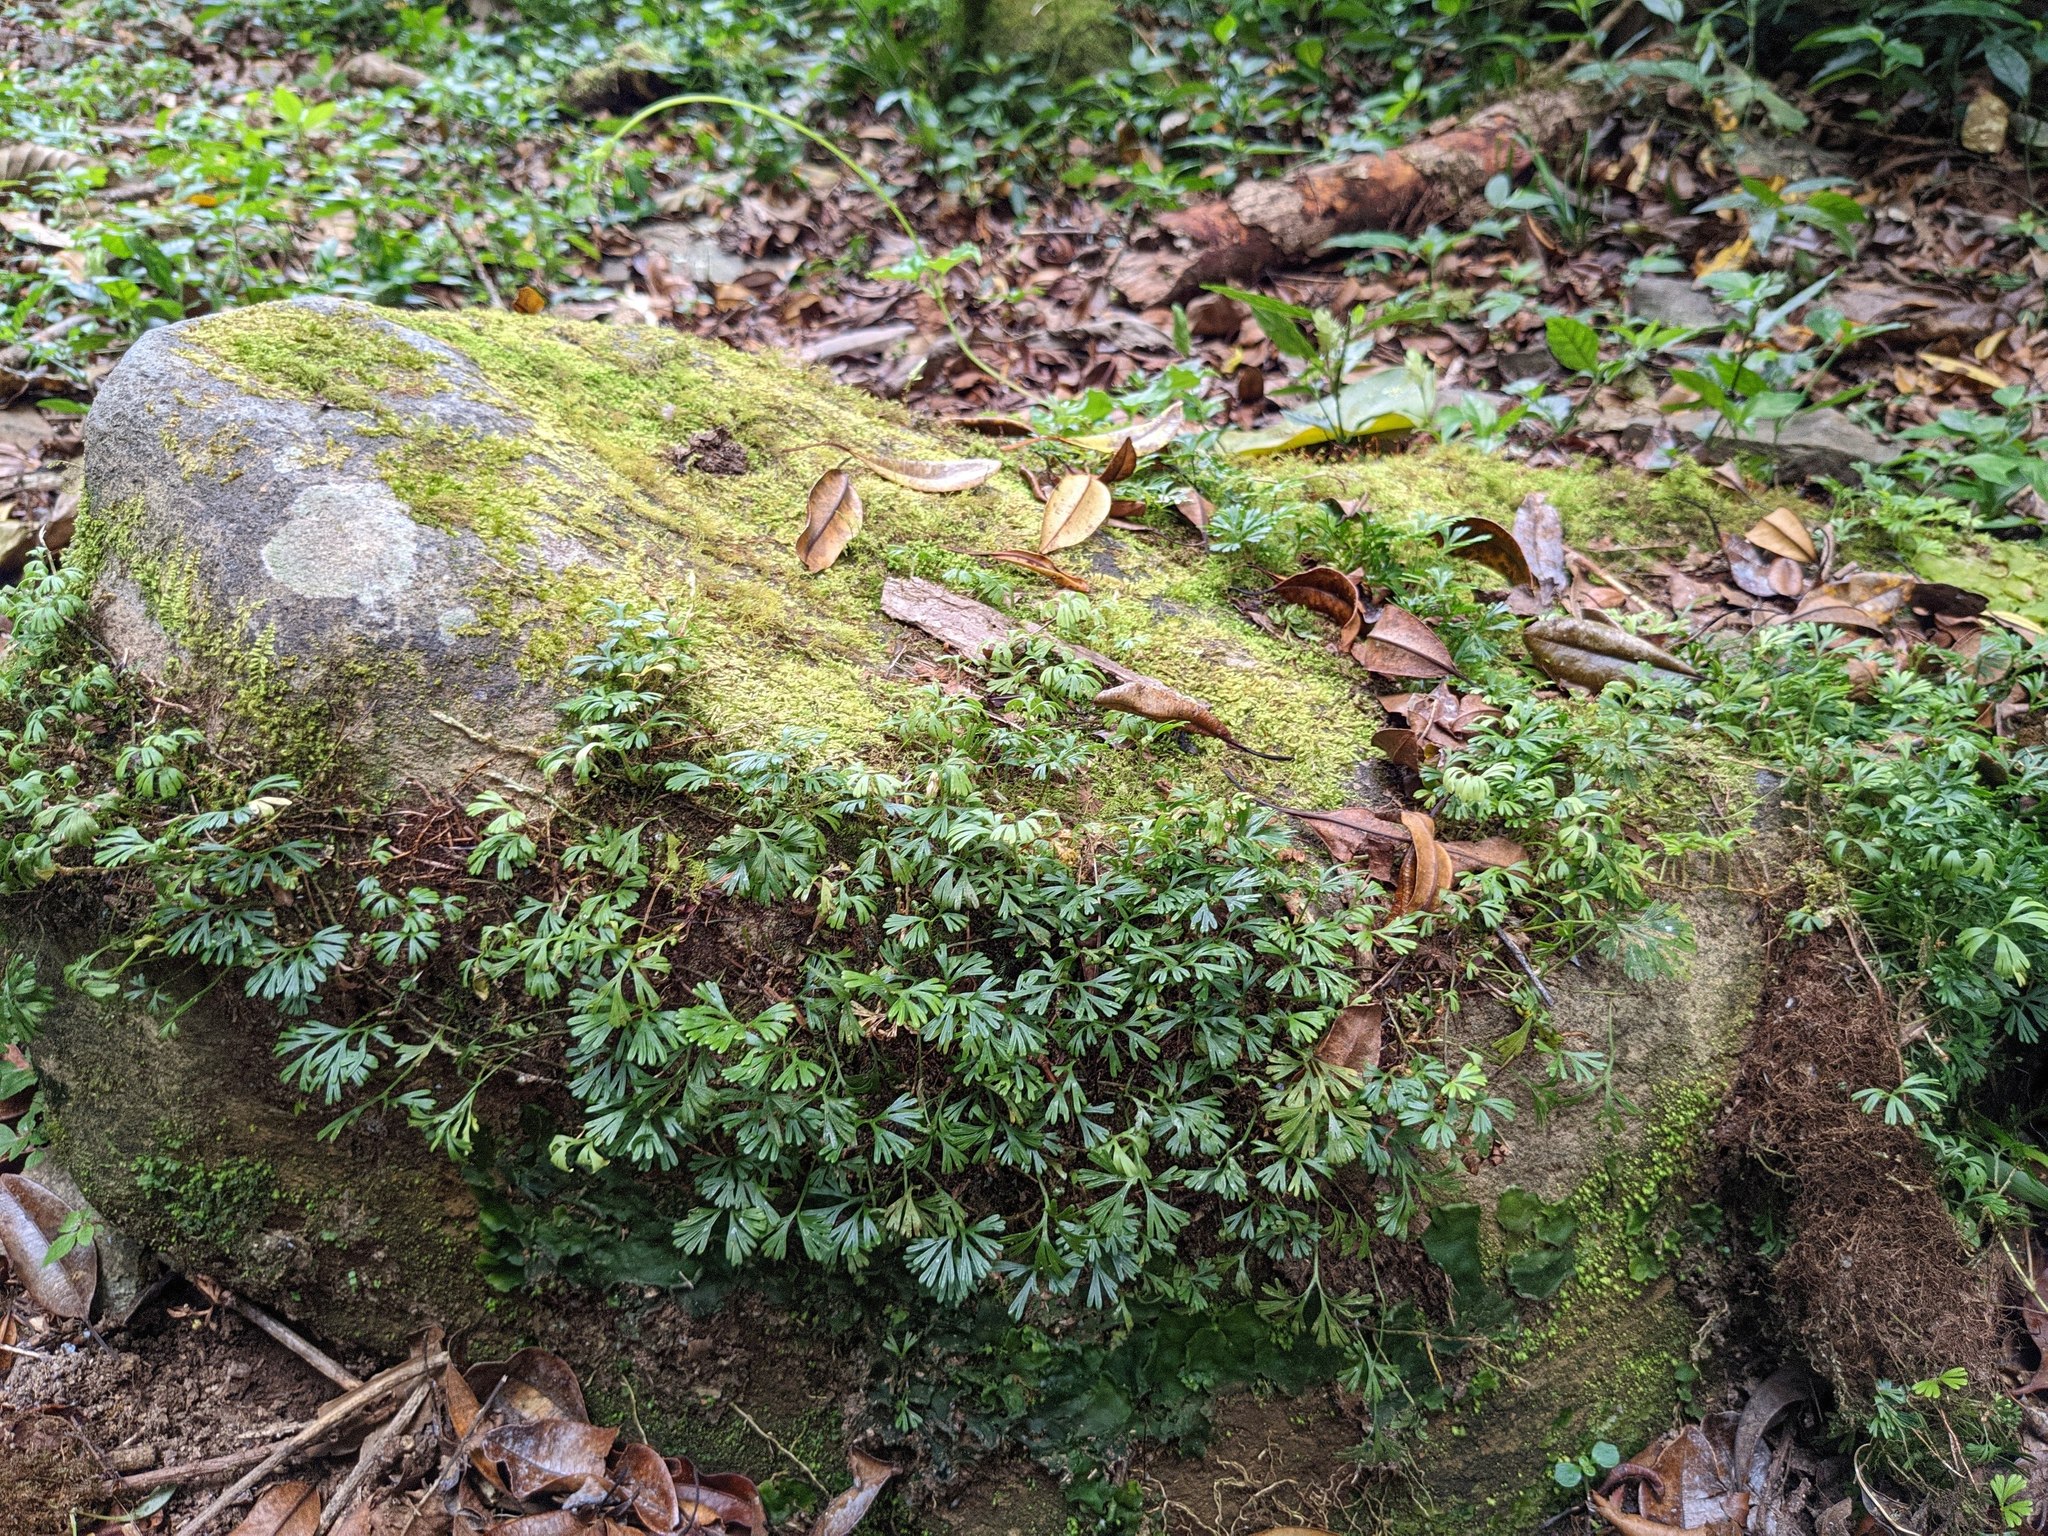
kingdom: Plantae
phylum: Tracheophyta
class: Polypodiopsida
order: Polypodiales
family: Dryopteridaceae
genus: Elaphoglossum
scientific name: Elaphoglossum peltatum
